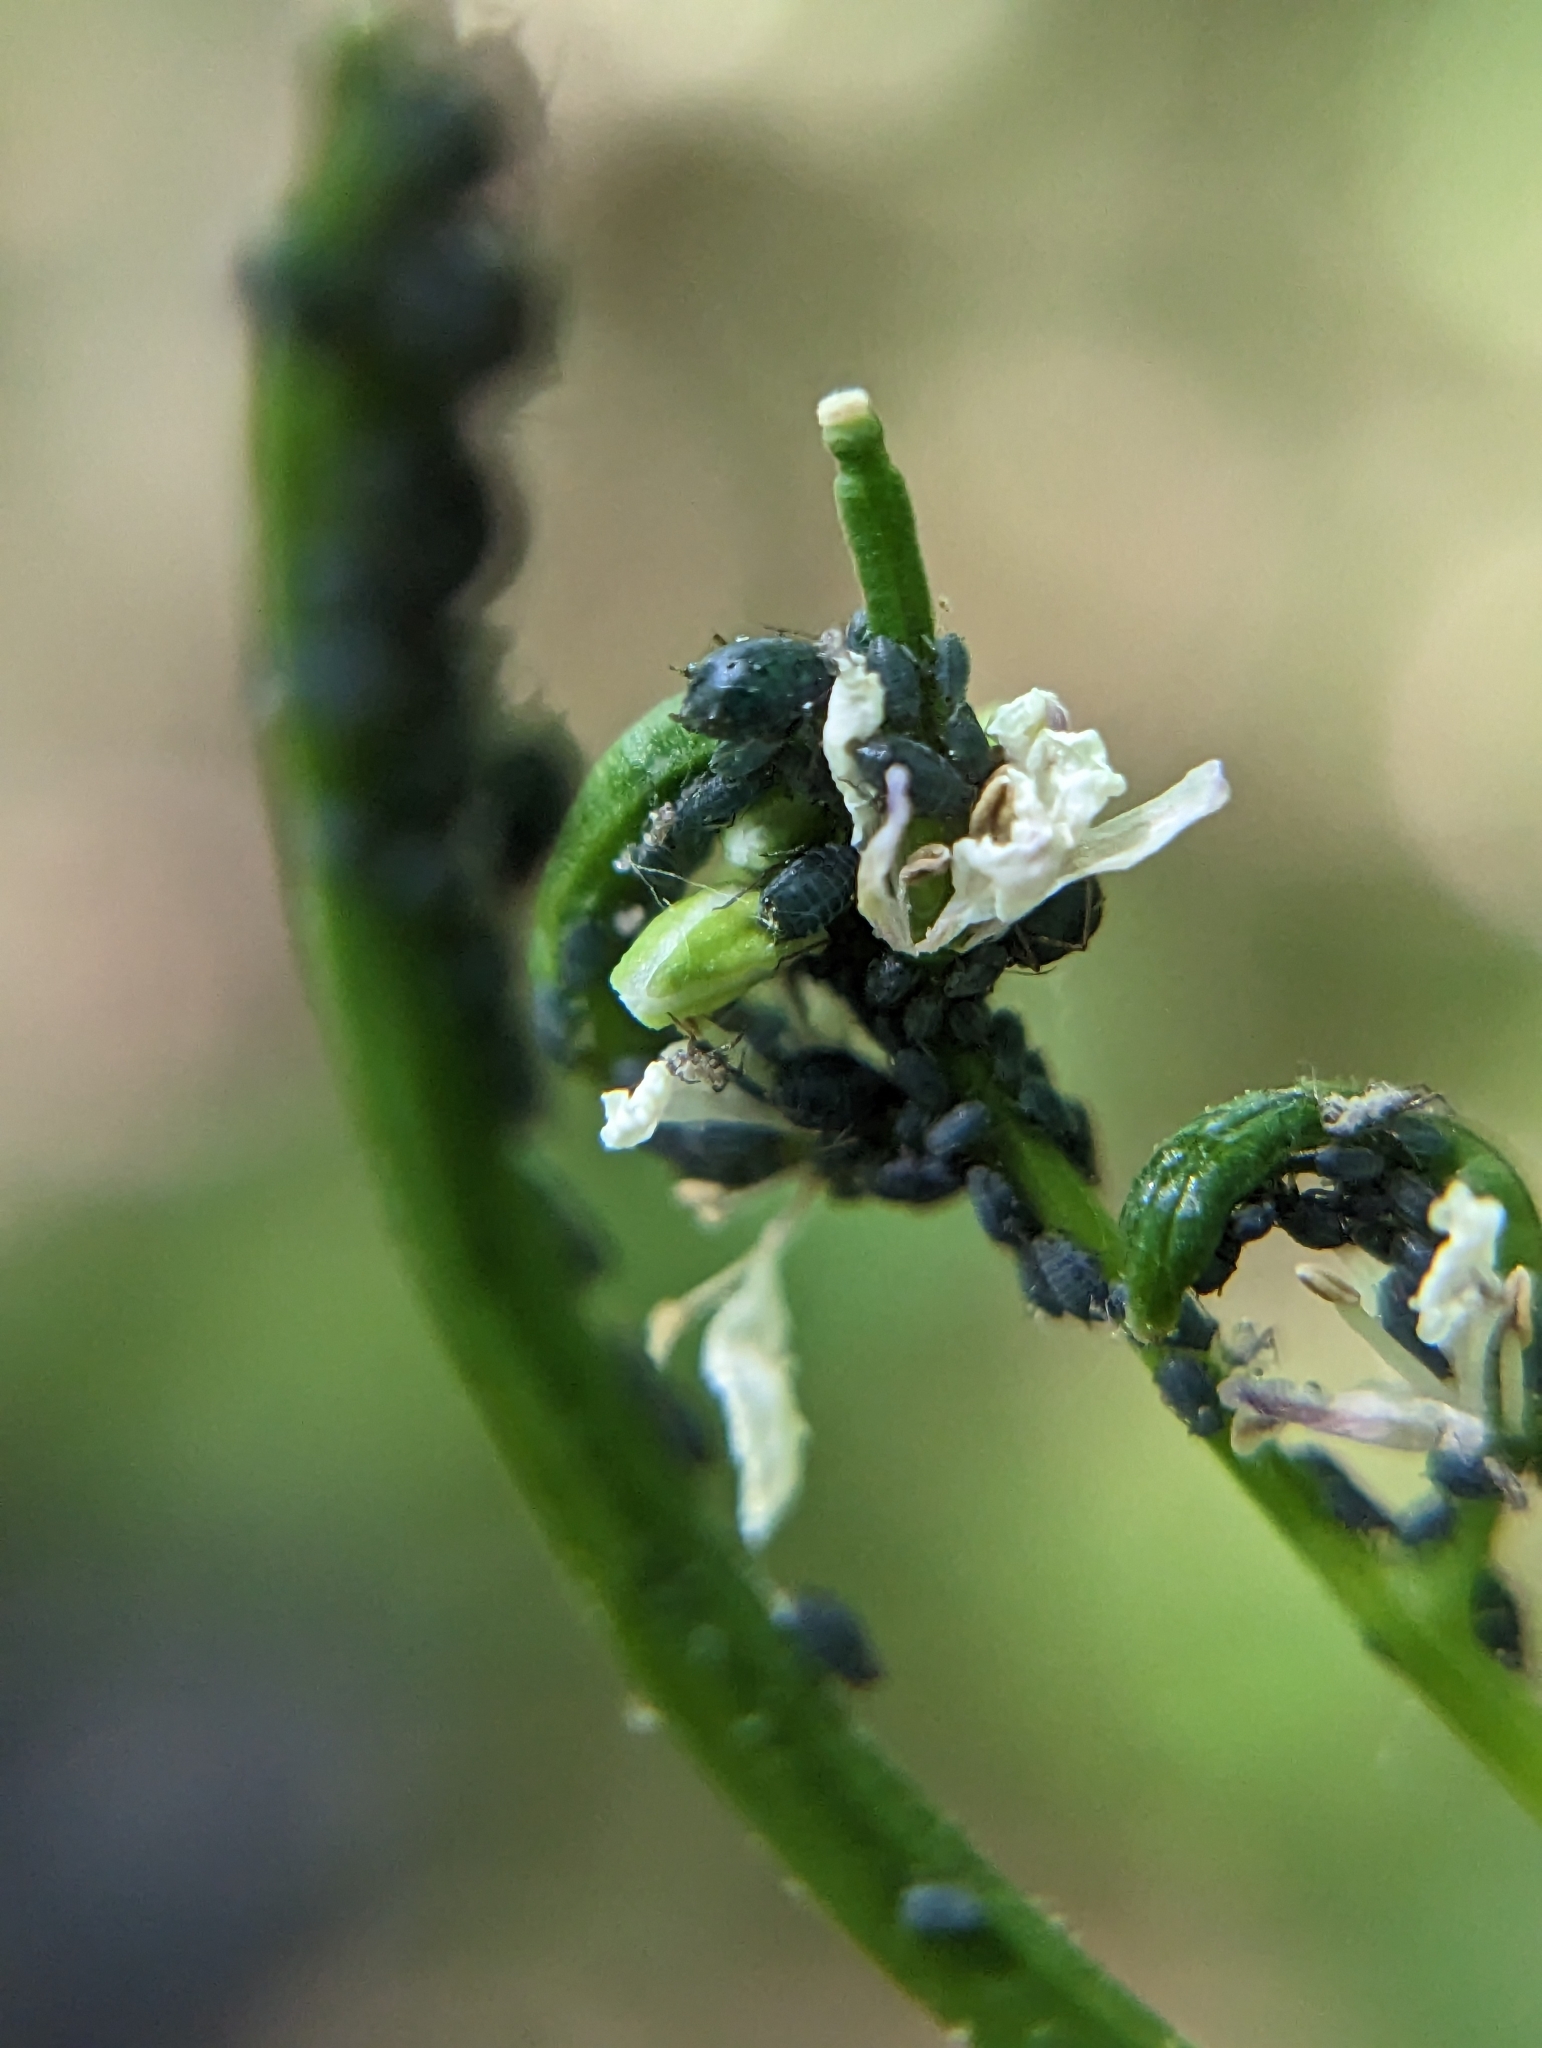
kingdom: Animalia
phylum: Arthropoda
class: Insecta
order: Hemiptera
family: Aphididae
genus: Lipaphis
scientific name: Lipaphis alliariae
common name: Granade aphid
